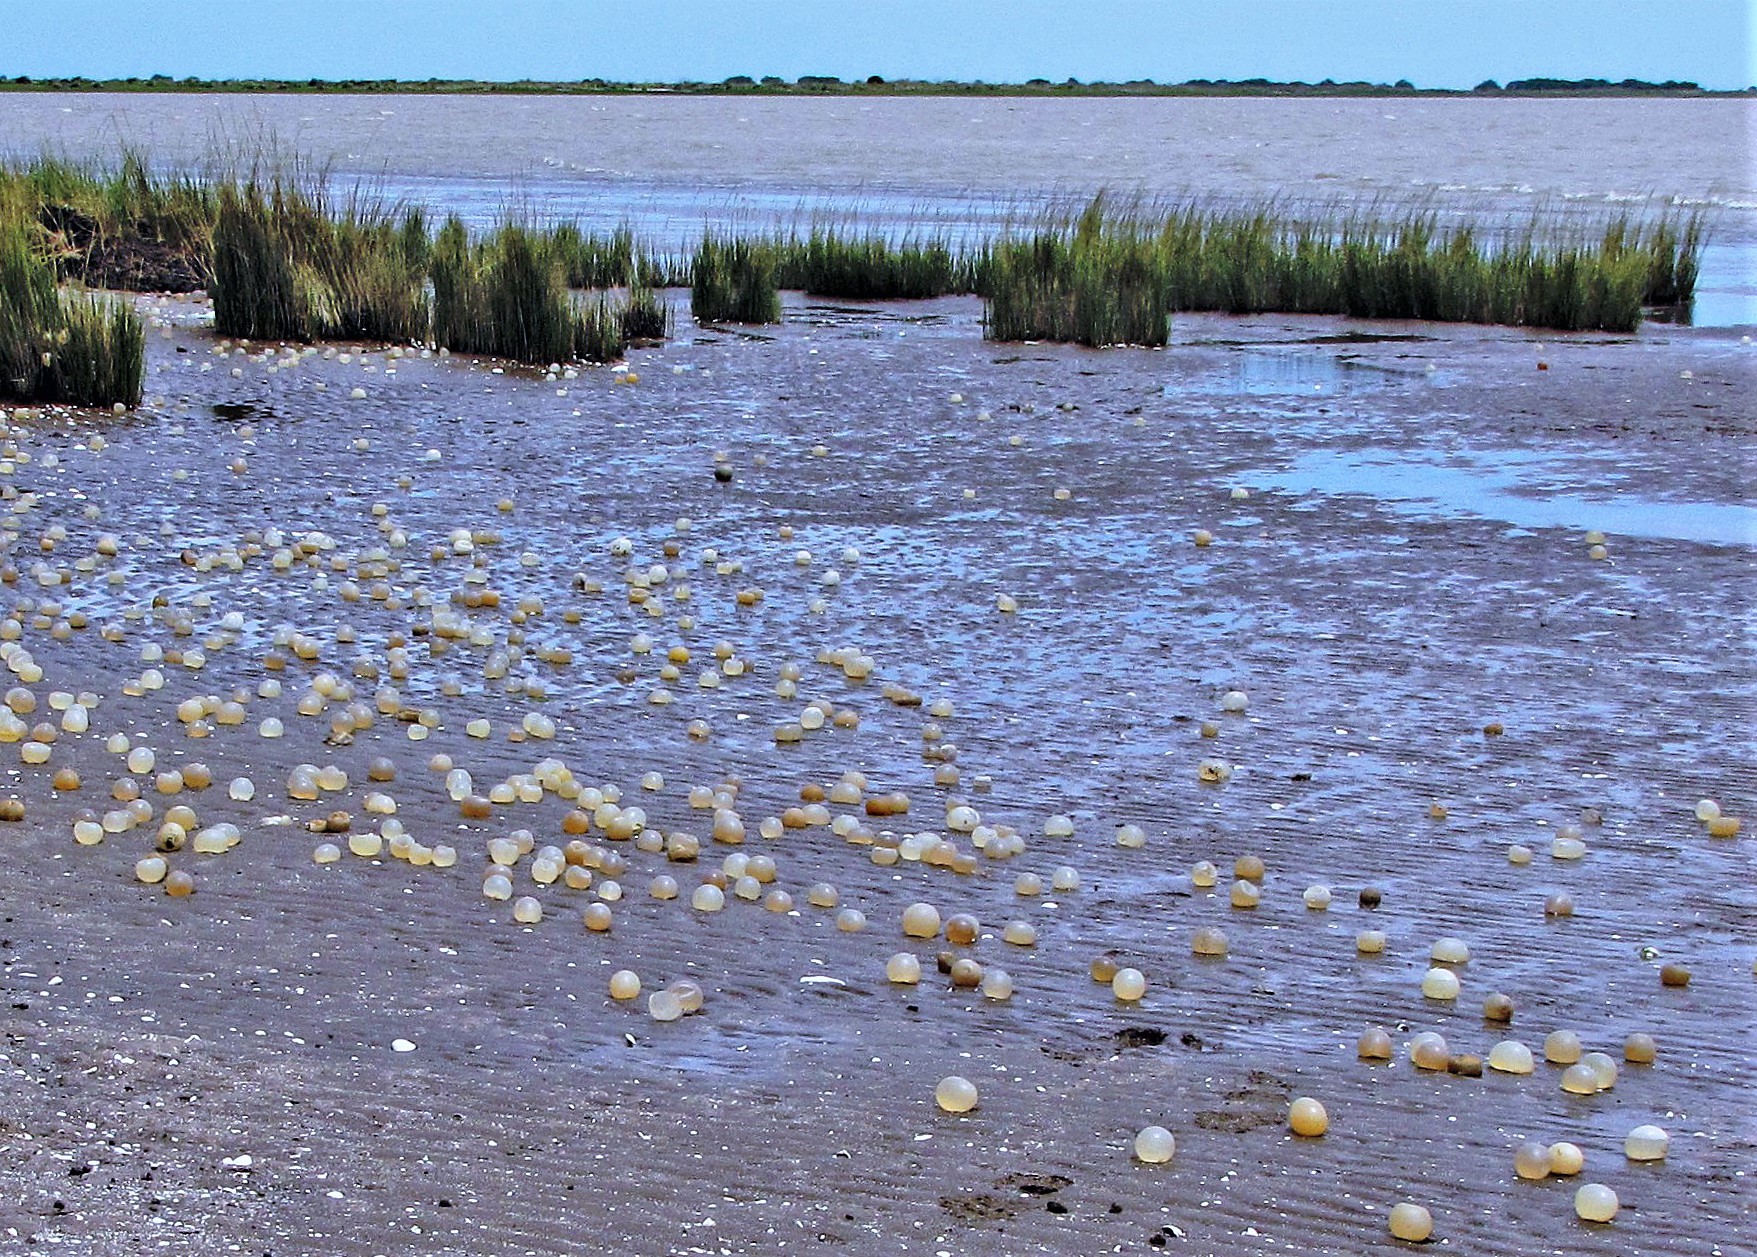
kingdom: Animalia
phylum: Mollusca
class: Gastropoda
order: Neogastropoda
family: Volutidae
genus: Pachycymbiola
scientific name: Pachycymbiola brasiliana
